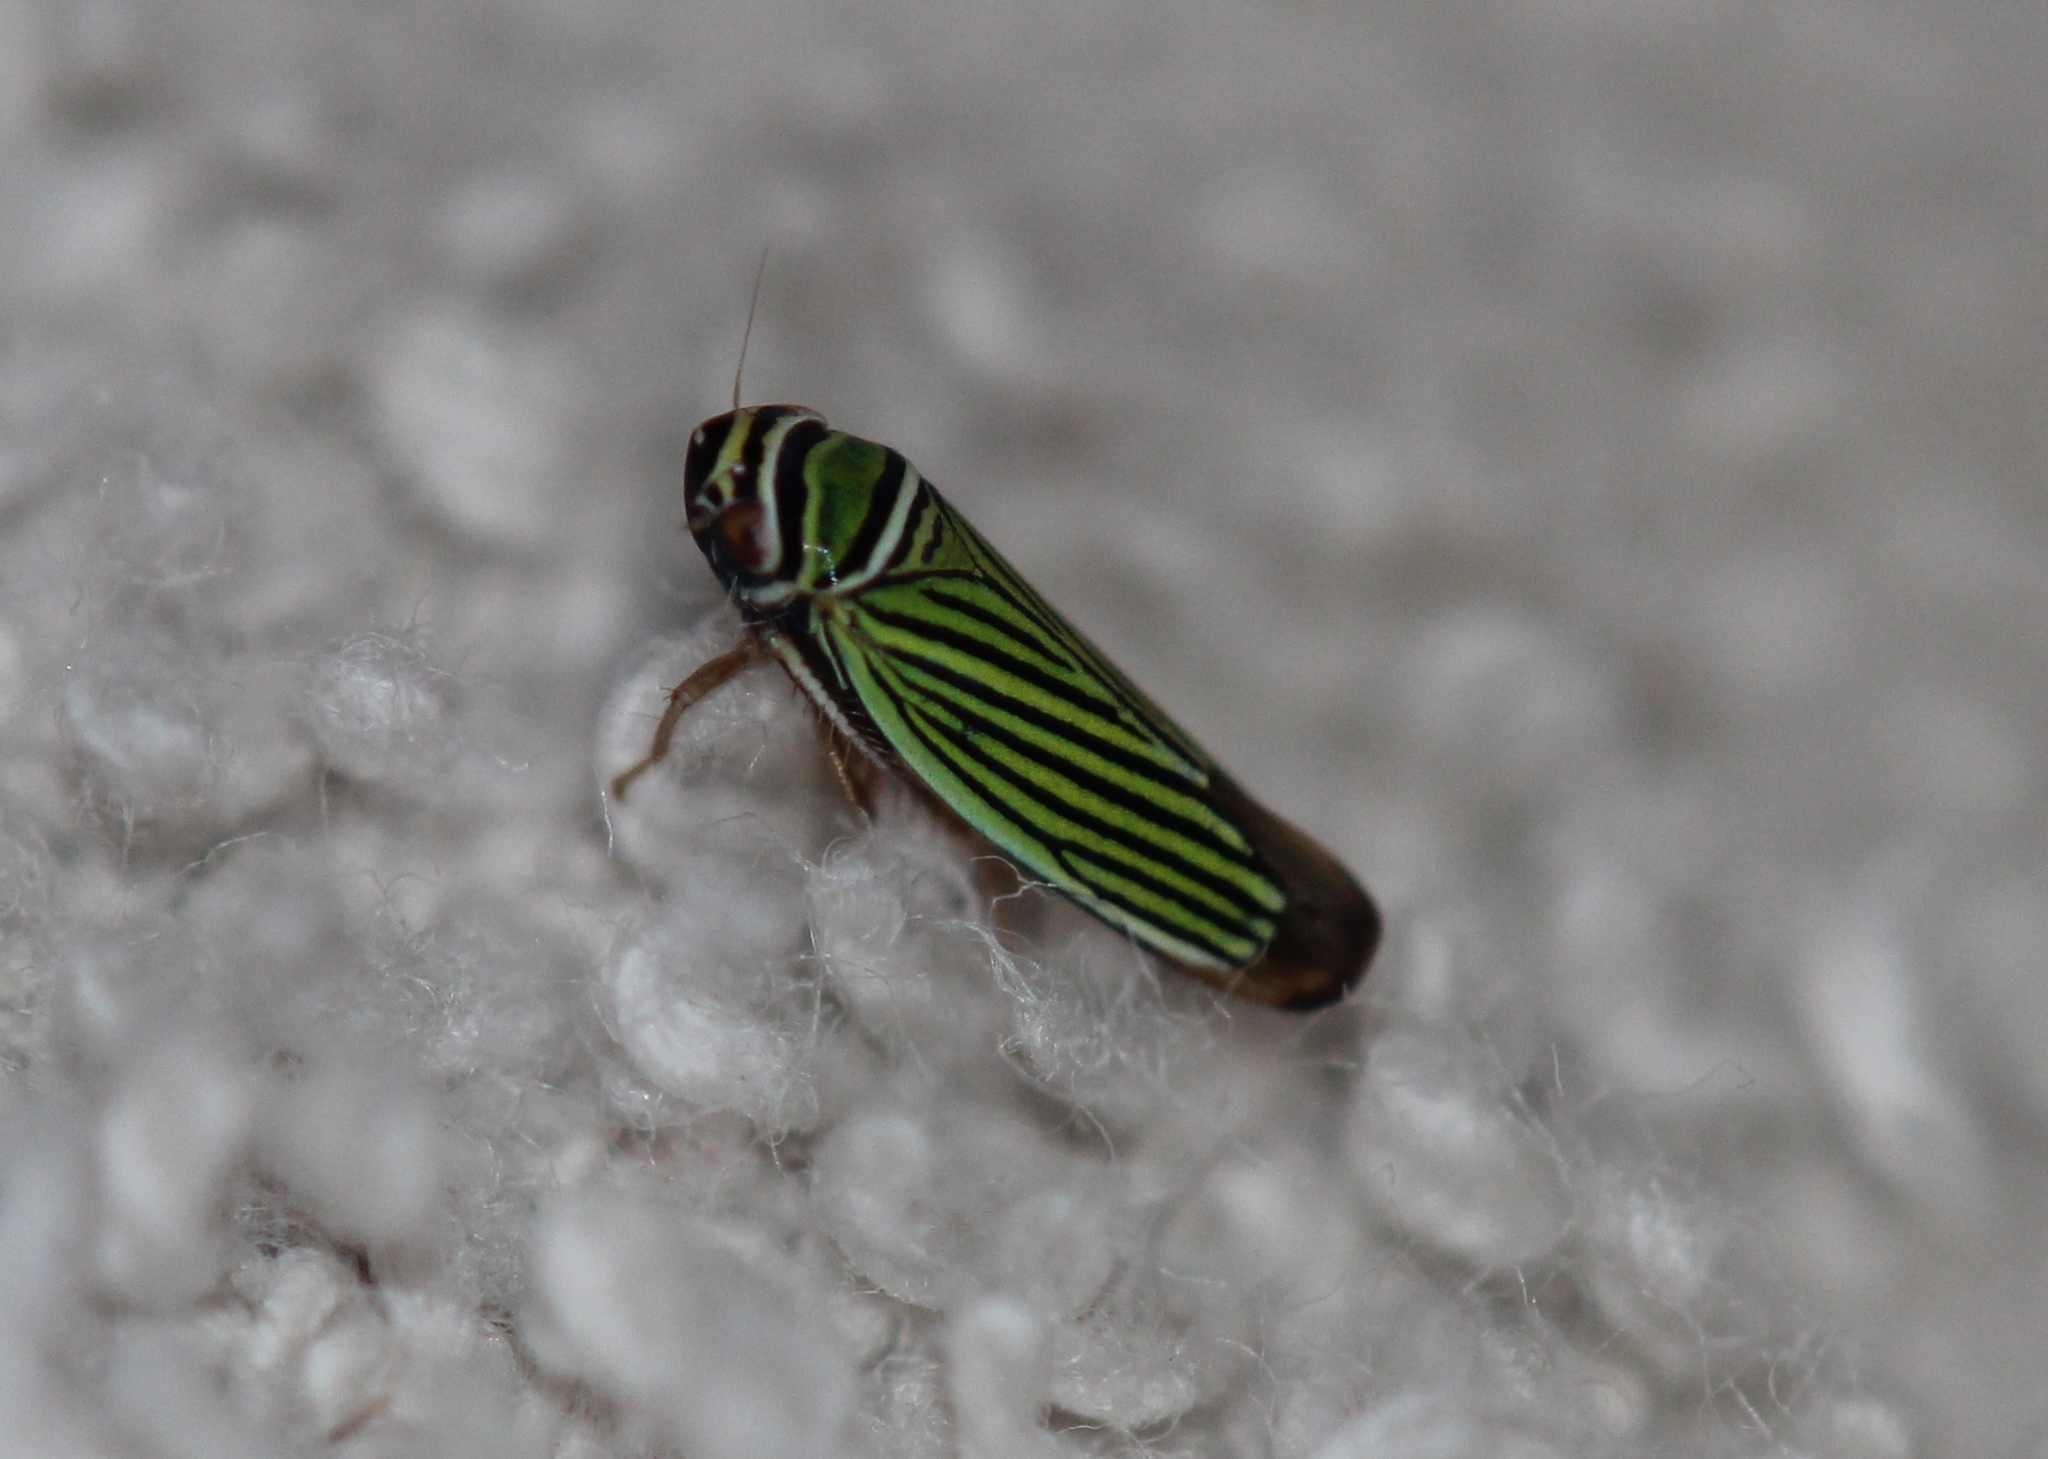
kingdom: Animalia
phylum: Arthropoda
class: Insecta
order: Hemiptera
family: Cicadellidae
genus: Tylozygus
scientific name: Tylozygus bifidus
